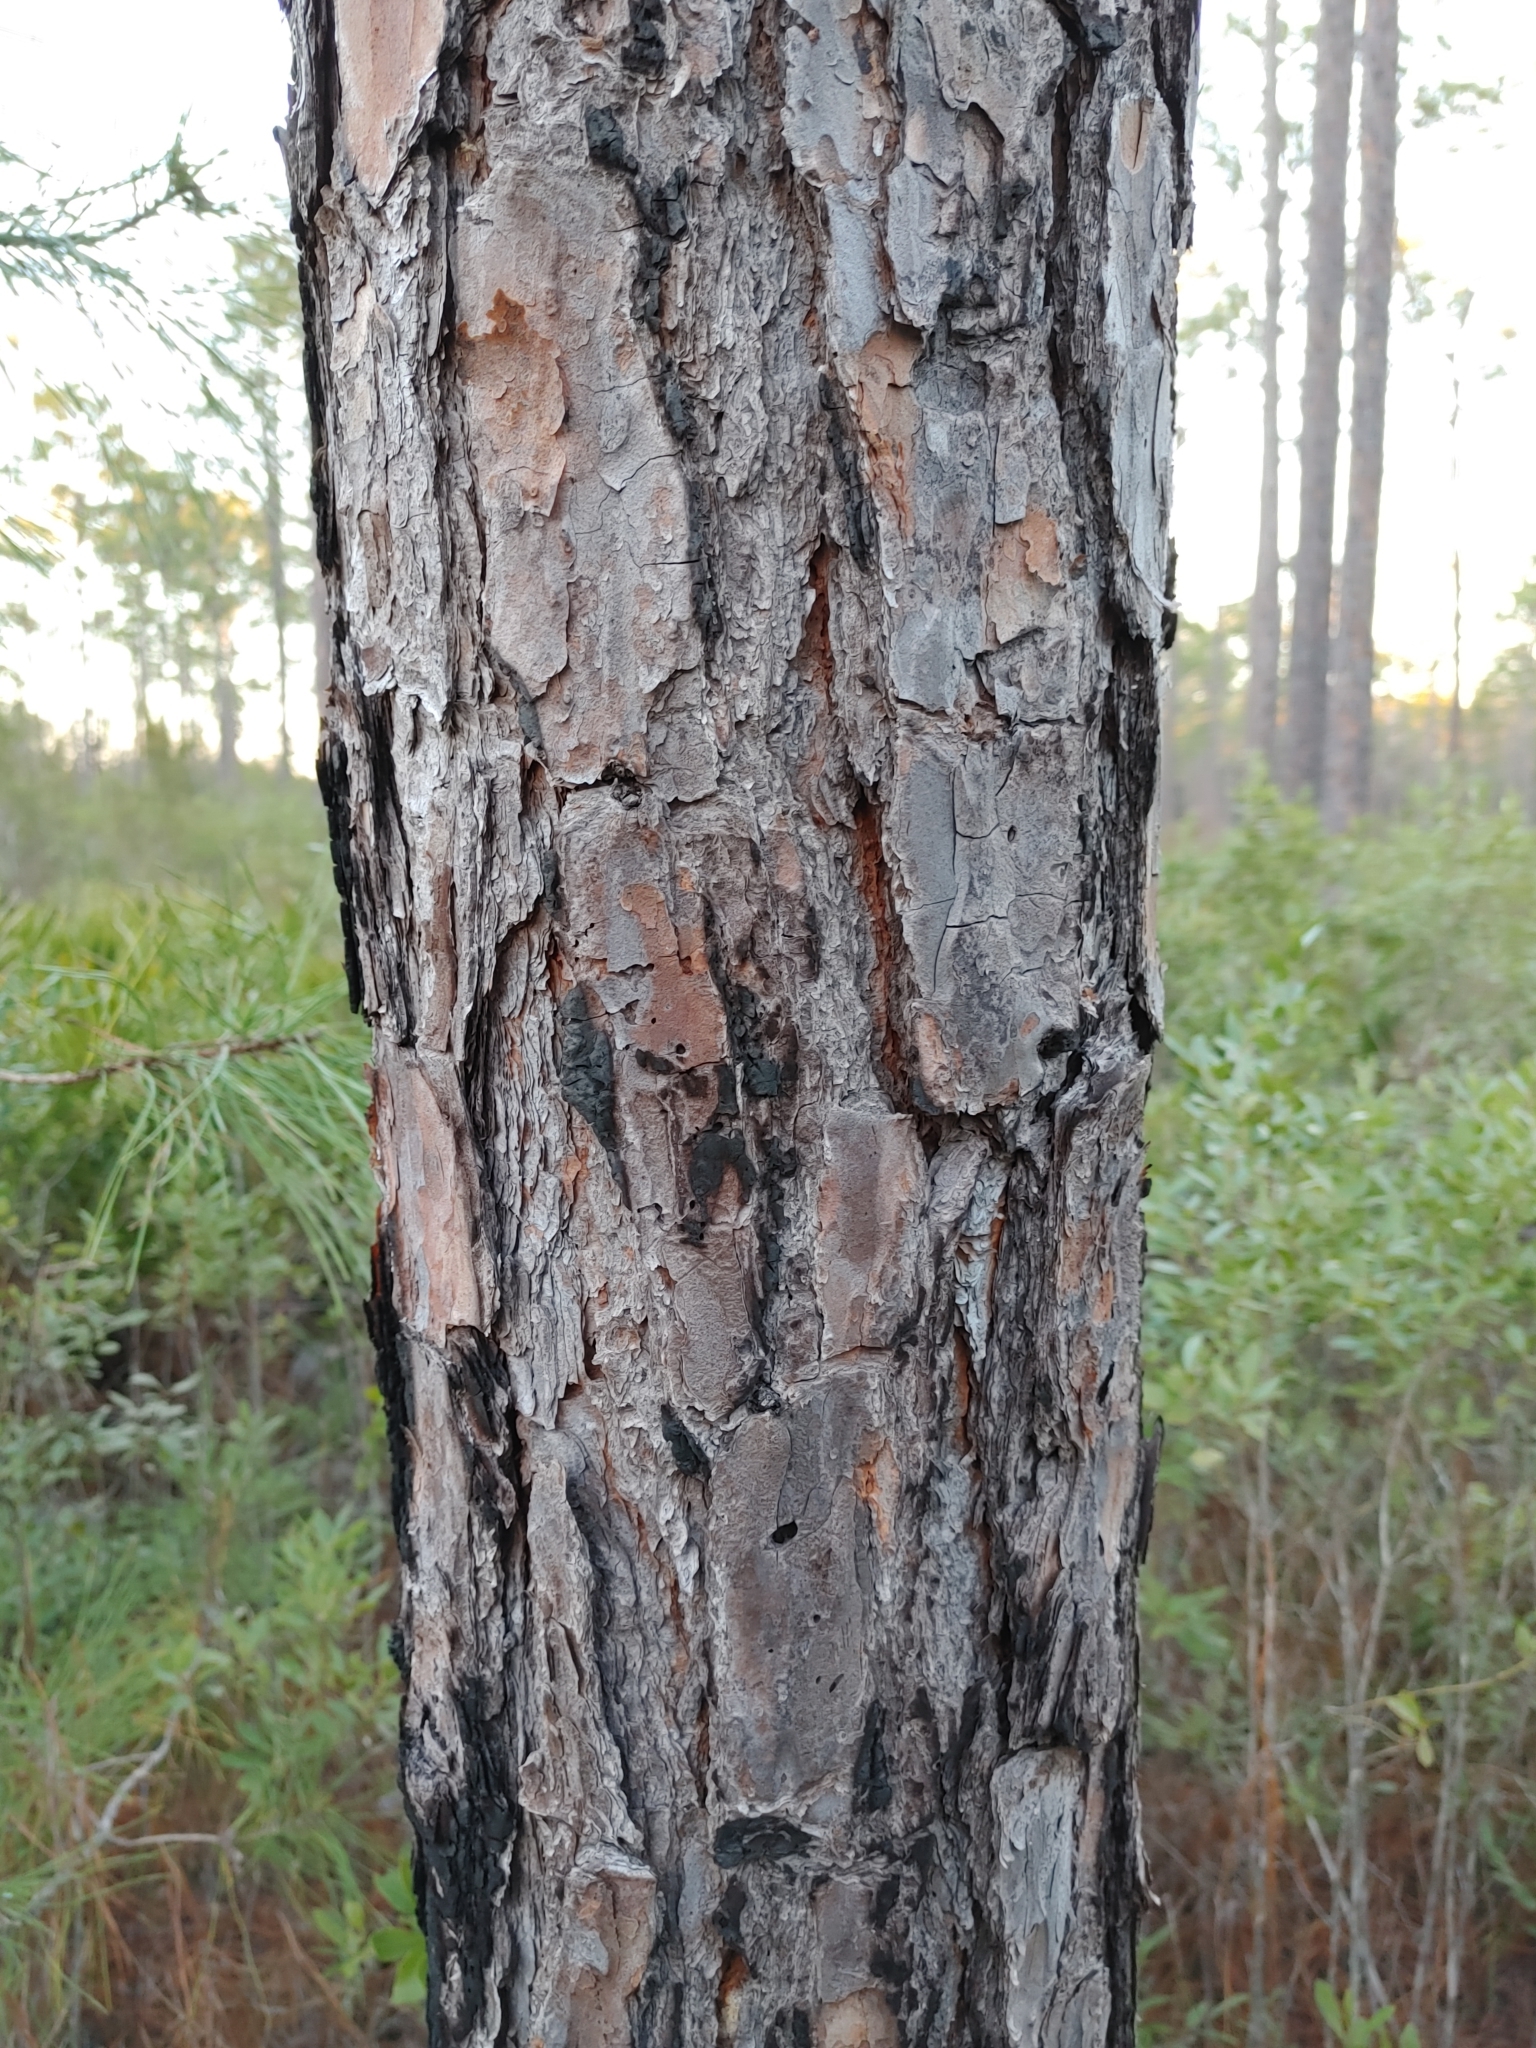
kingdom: Plantae
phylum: Tracheophyta
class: Pinopsida
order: Pinales
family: Pinaceae
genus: Pinus
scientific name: Pinus serotina
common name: Marsh pine
